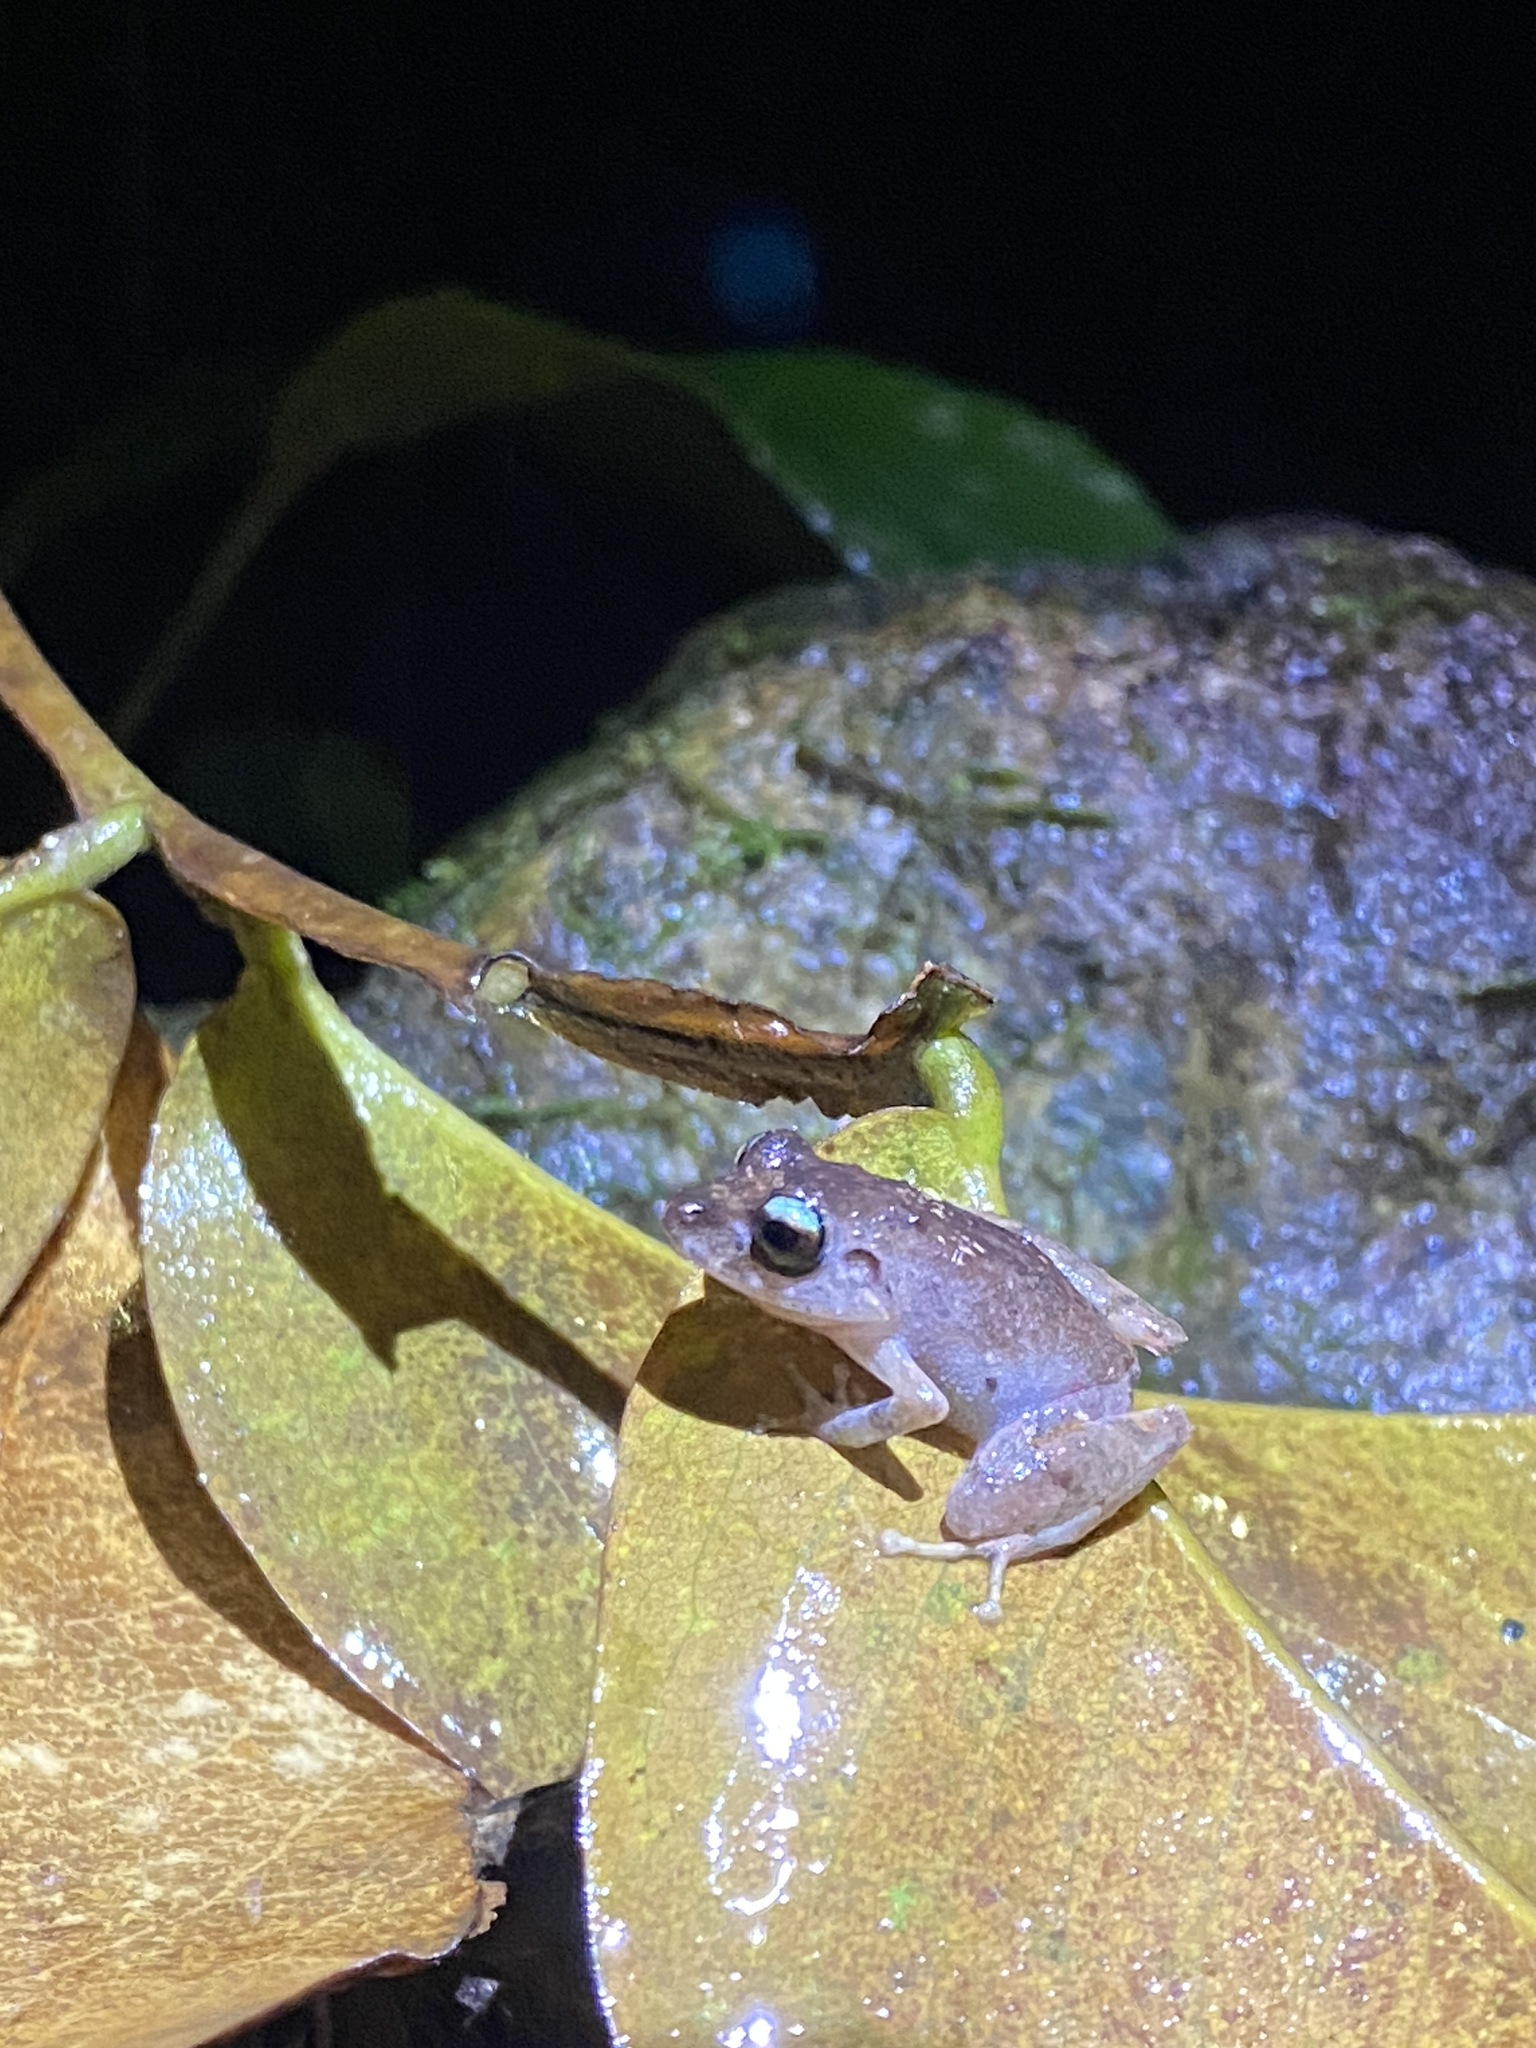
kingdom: Animalia
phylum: Chordata
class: Amphibia
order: Anura
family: Craugastoridae
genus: Pristimantis
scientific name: Pristimantis urichi
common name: Lesser antilles robber frog
